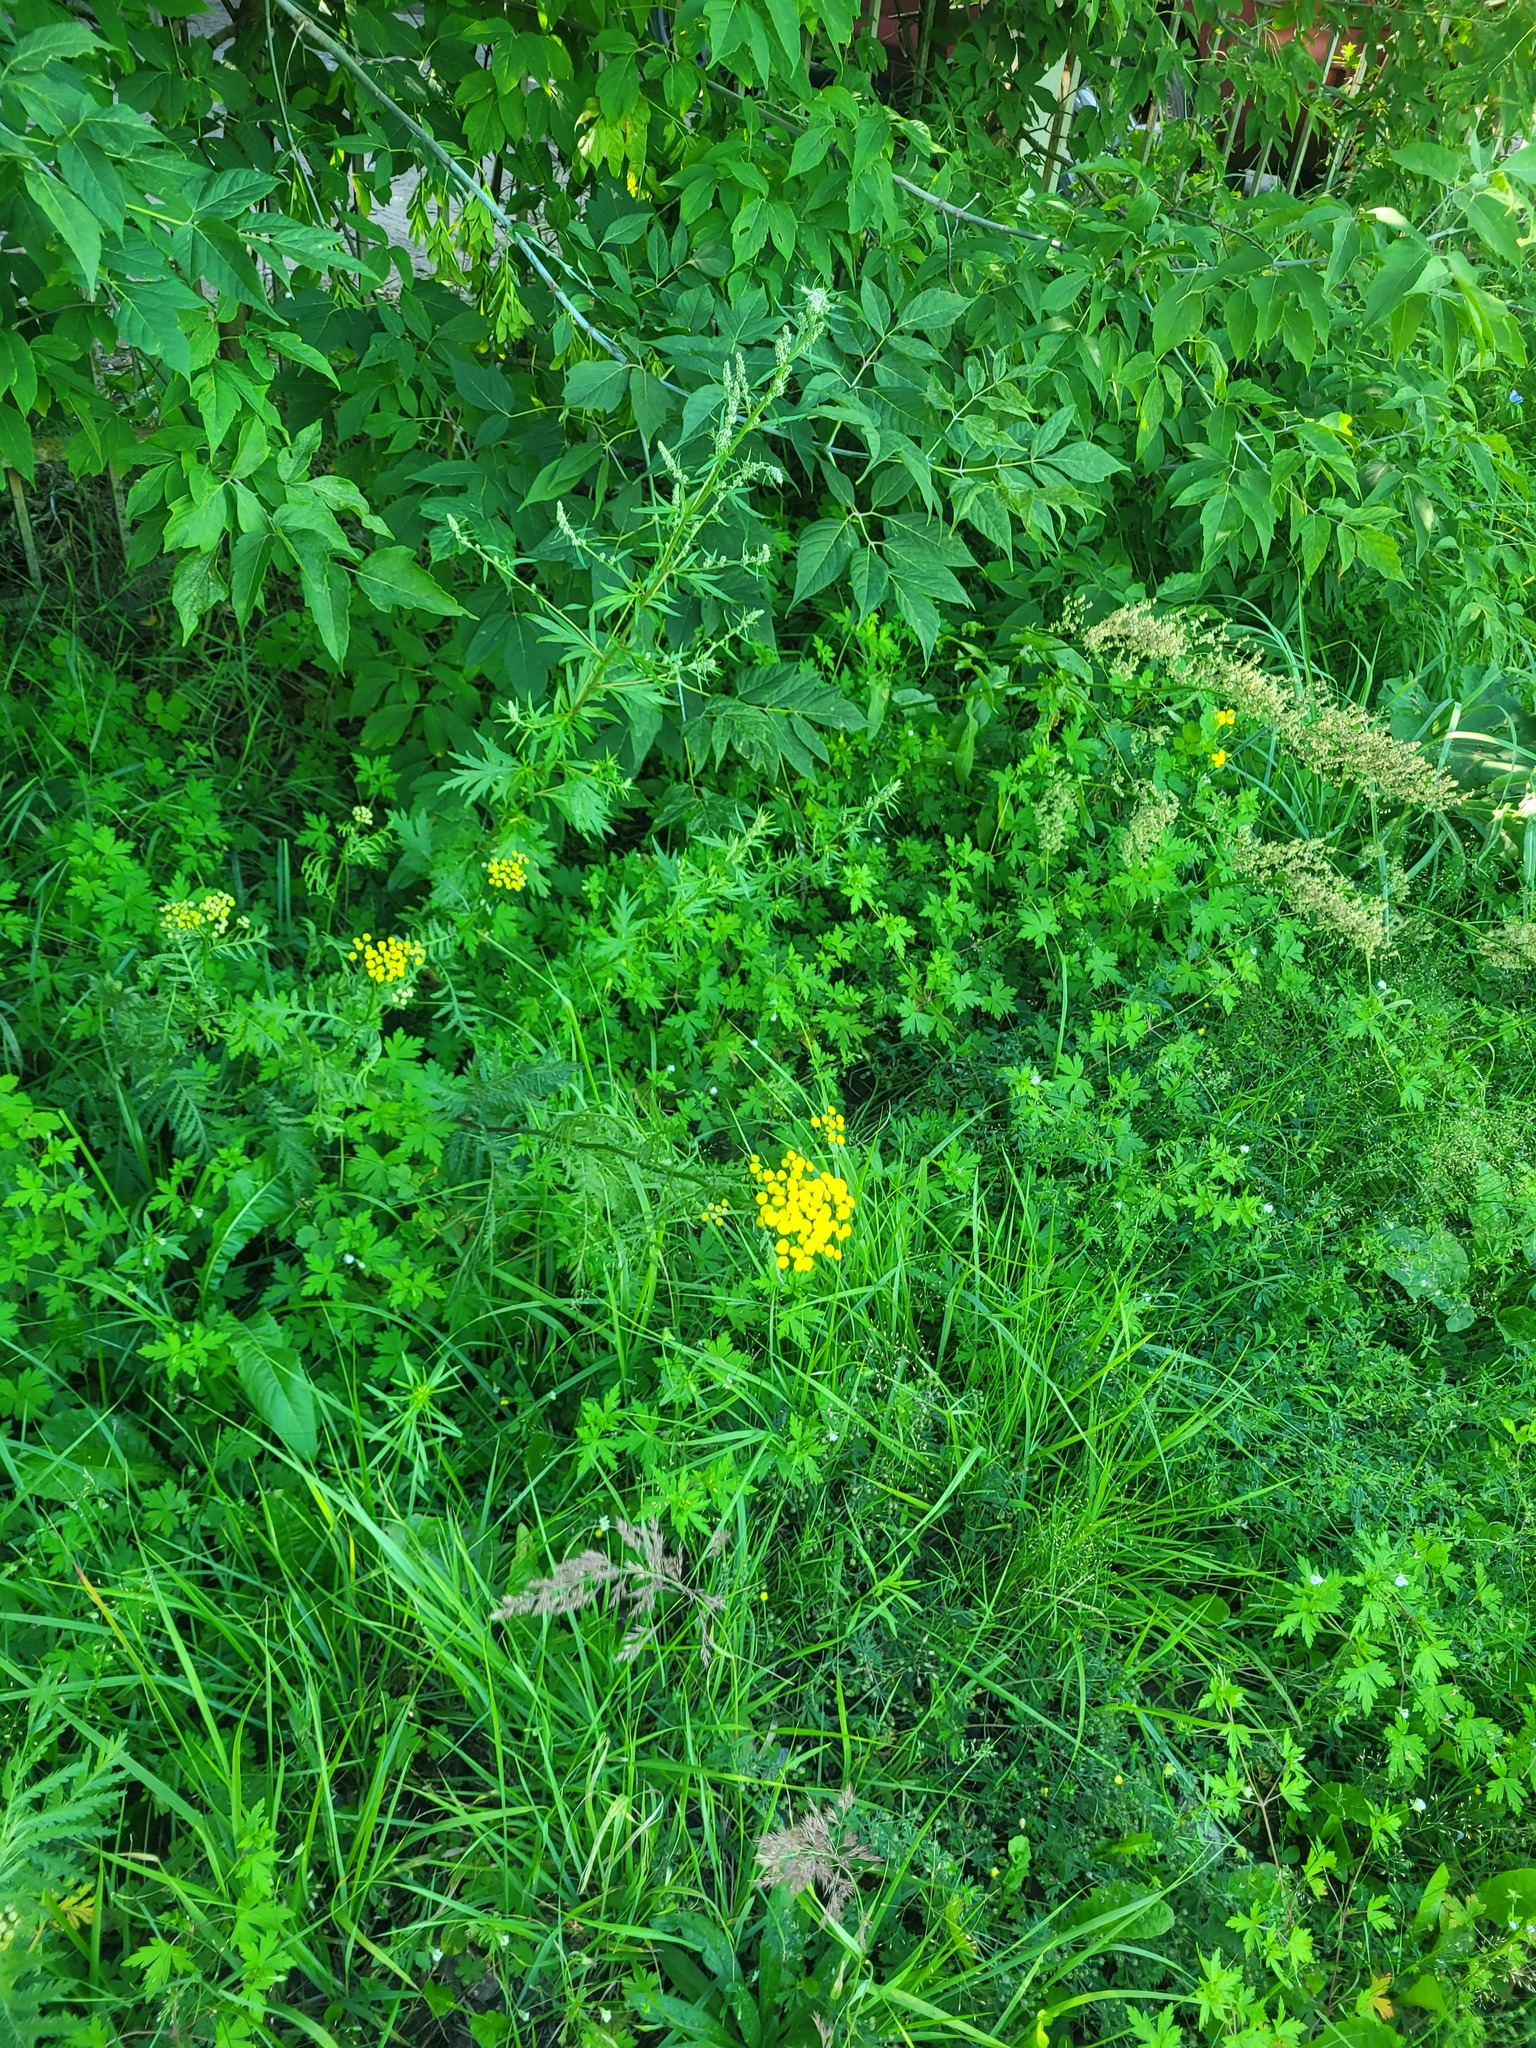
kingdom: Plantae
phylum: Tracheophyta
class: Magnoliopsida
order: Asterales
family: Asteraceae
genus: Tanacetum
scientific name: Tanacetum vulgare
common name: Common tansy
